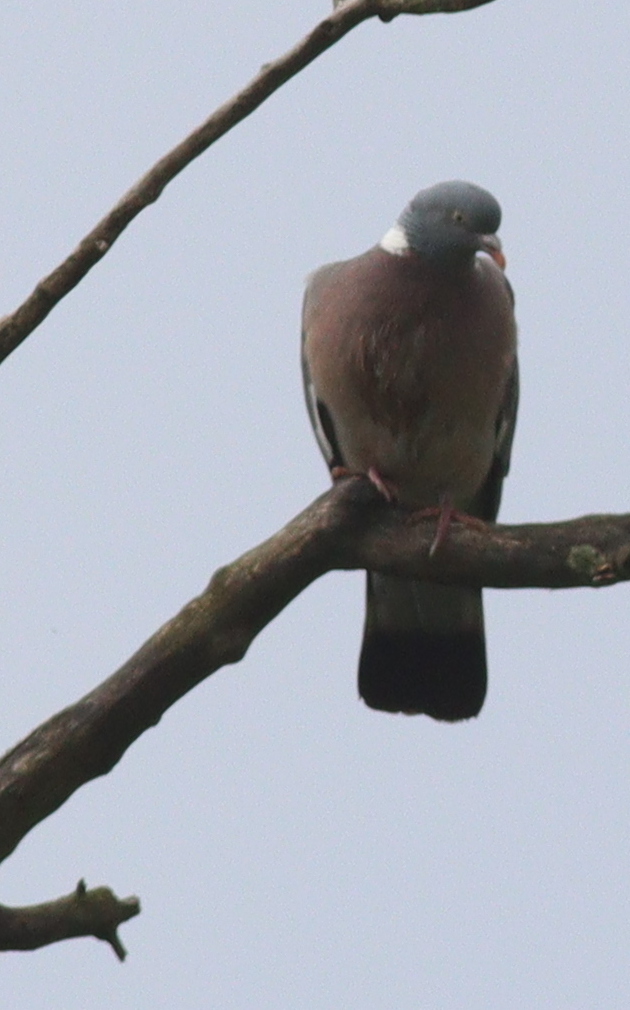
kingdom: Animalia
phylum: Chordata
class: Aves
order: Columbiformes
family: Columbidae
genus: Columba
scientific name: Columba palumbus
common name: Common wood pigeon
